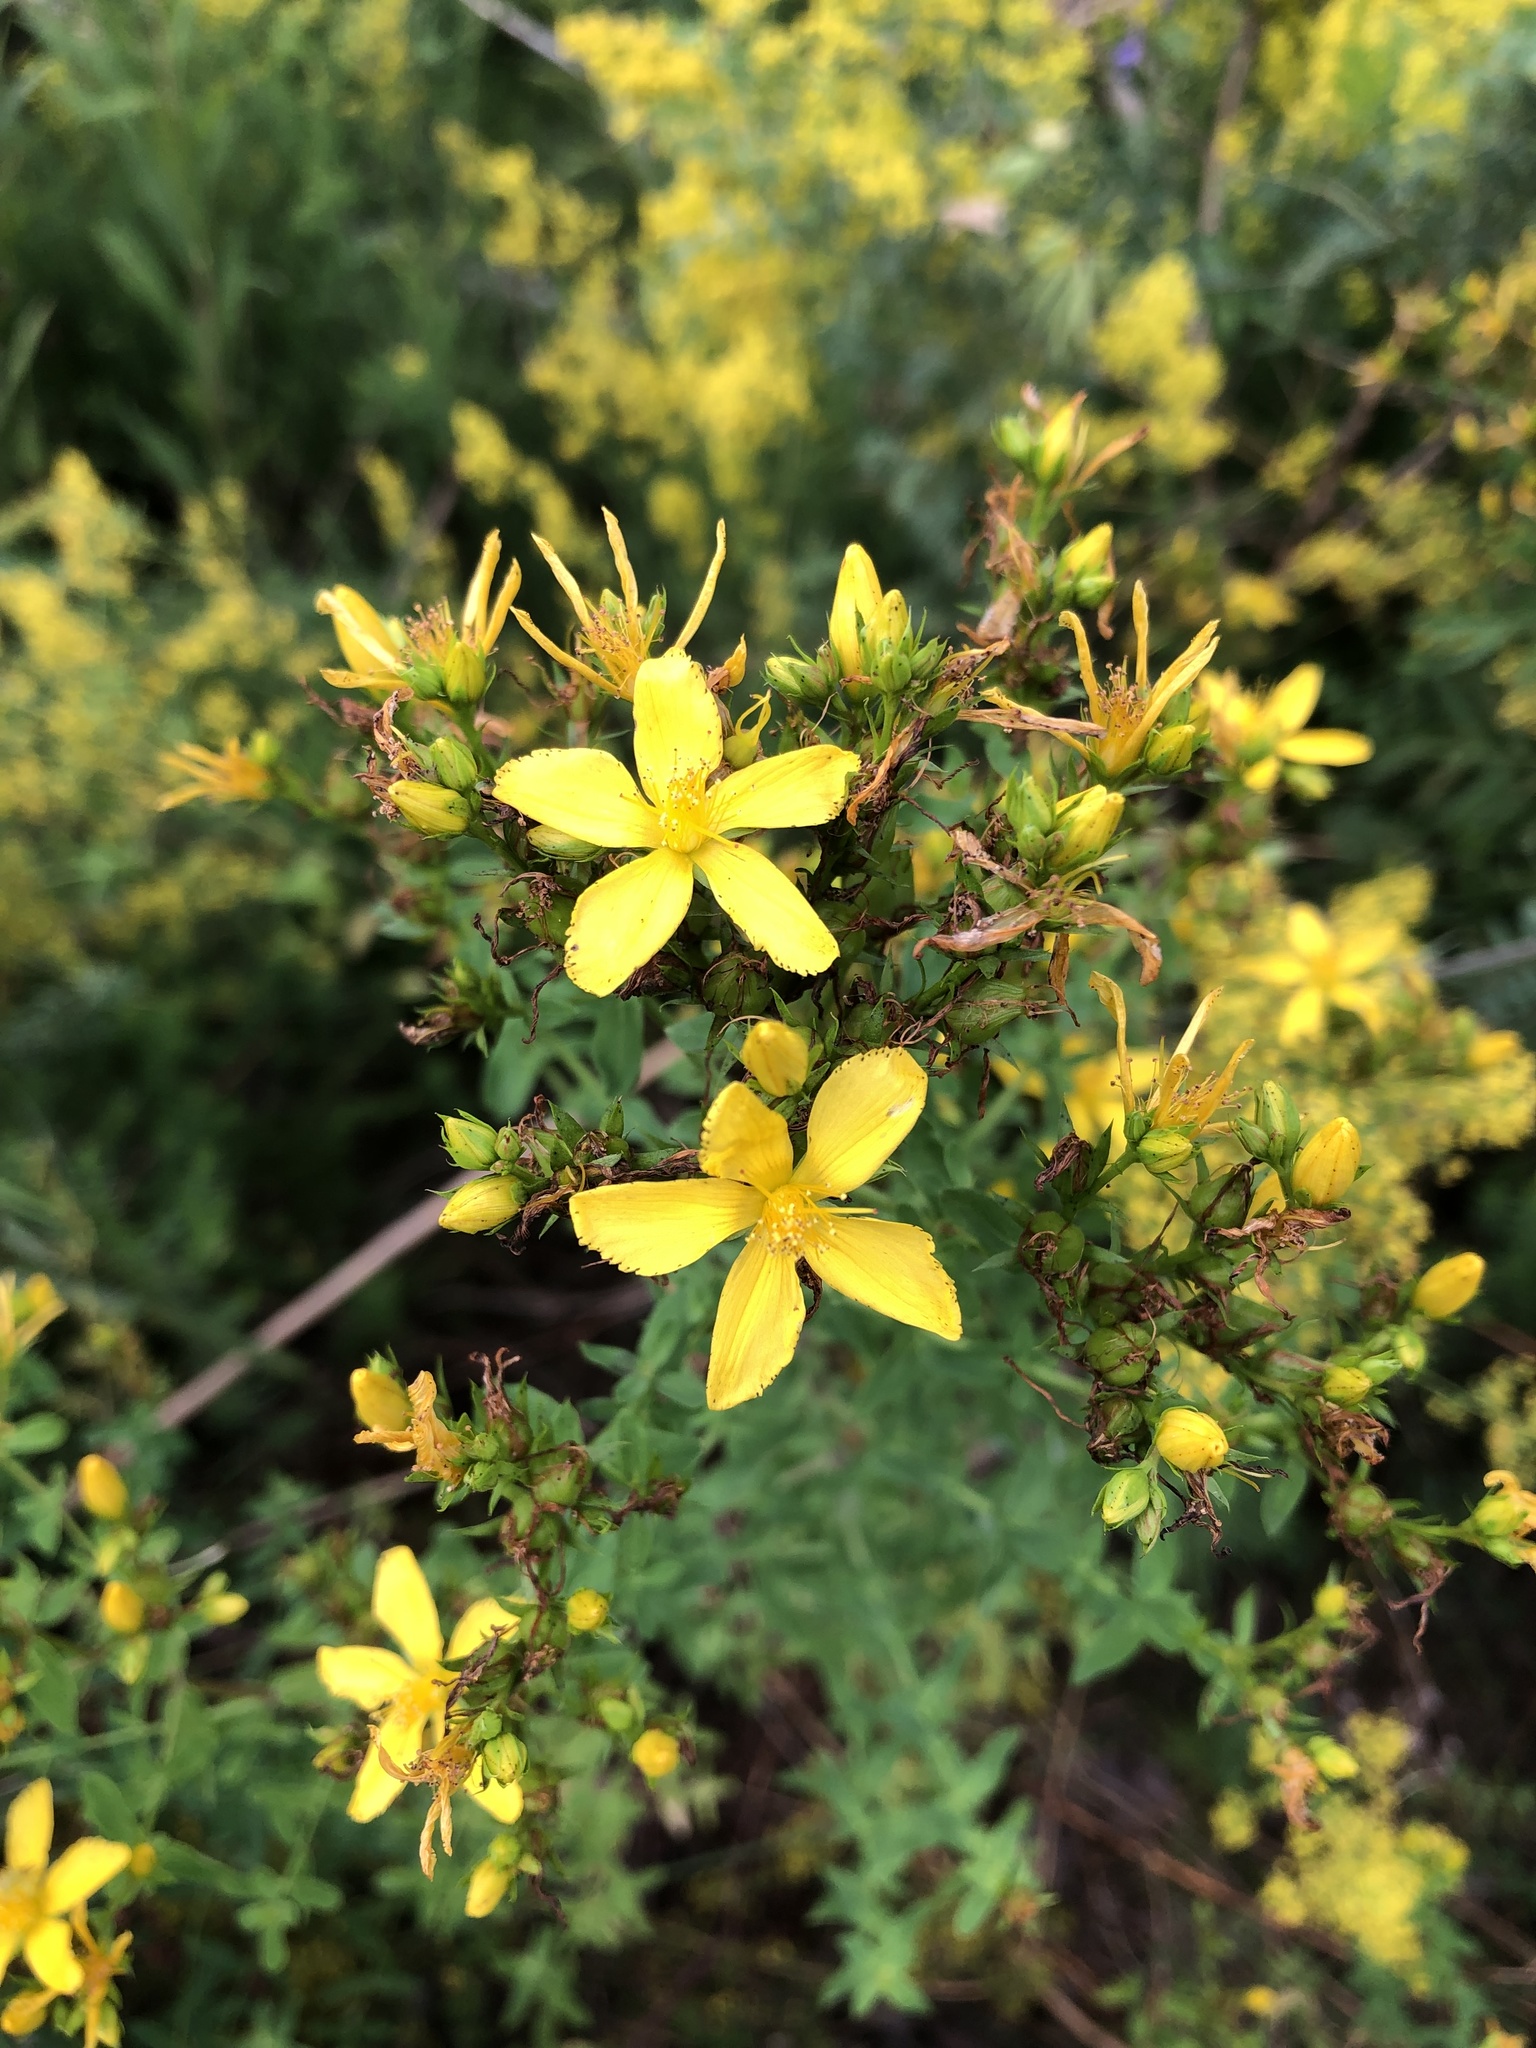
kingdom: Plantae
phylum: Tracheophyta
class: Magnoliopsida
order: Malpighiales
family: Hypericaceae
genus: Hypericum
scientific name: Hypericum perforatum
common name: Common st. johnswort
